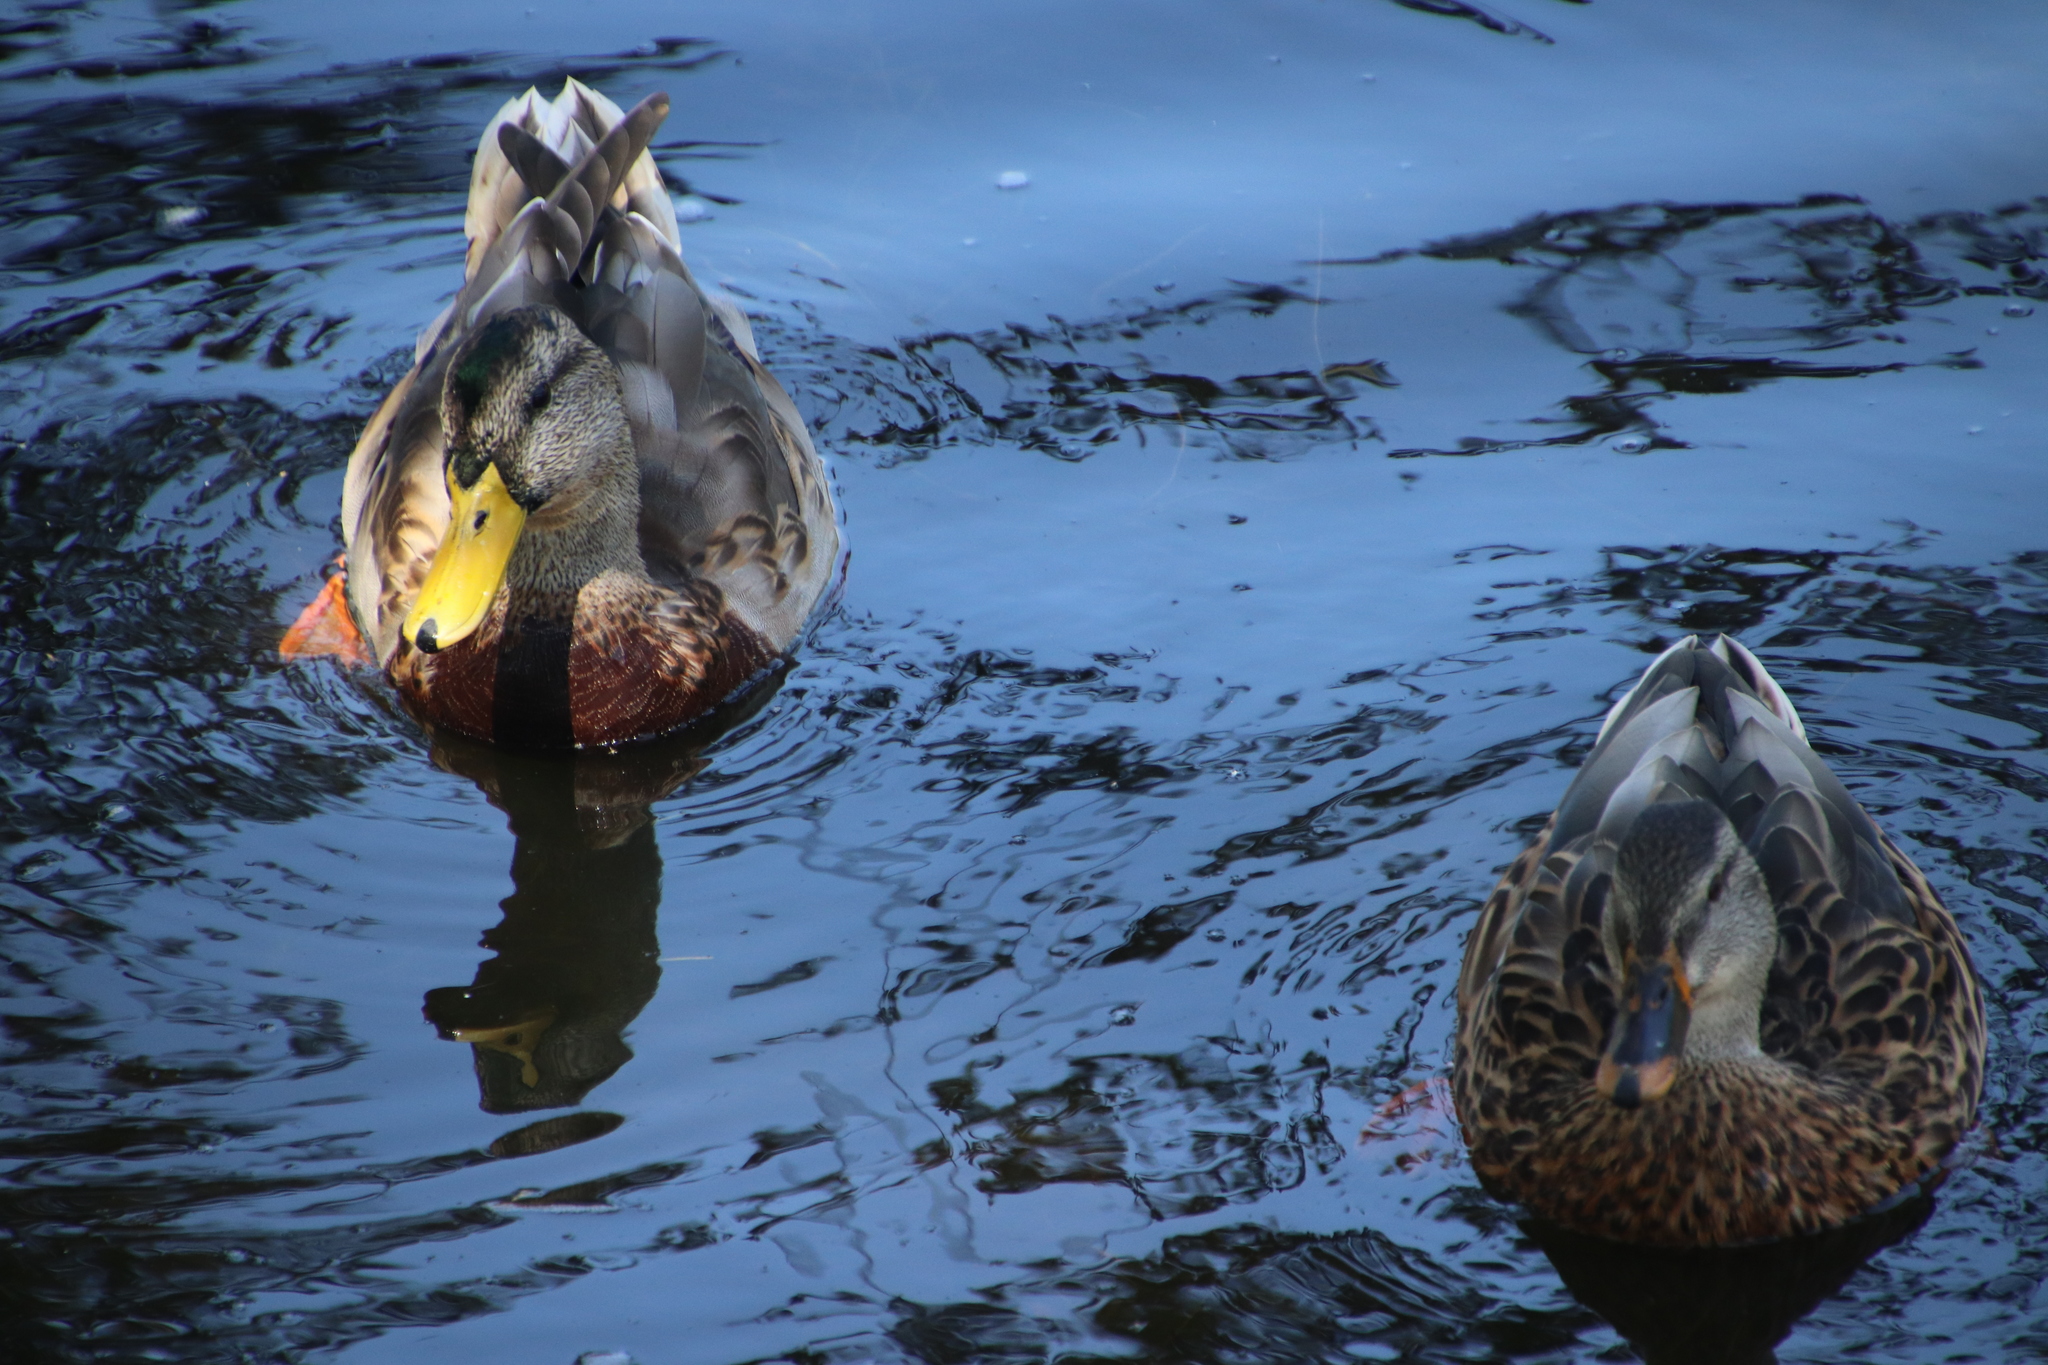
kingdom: Animalia
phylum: Chordata
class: Aves
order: Anseriformes
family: Anatidae
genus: Anas
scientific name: Anas platyrhynchos
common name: Mallard
